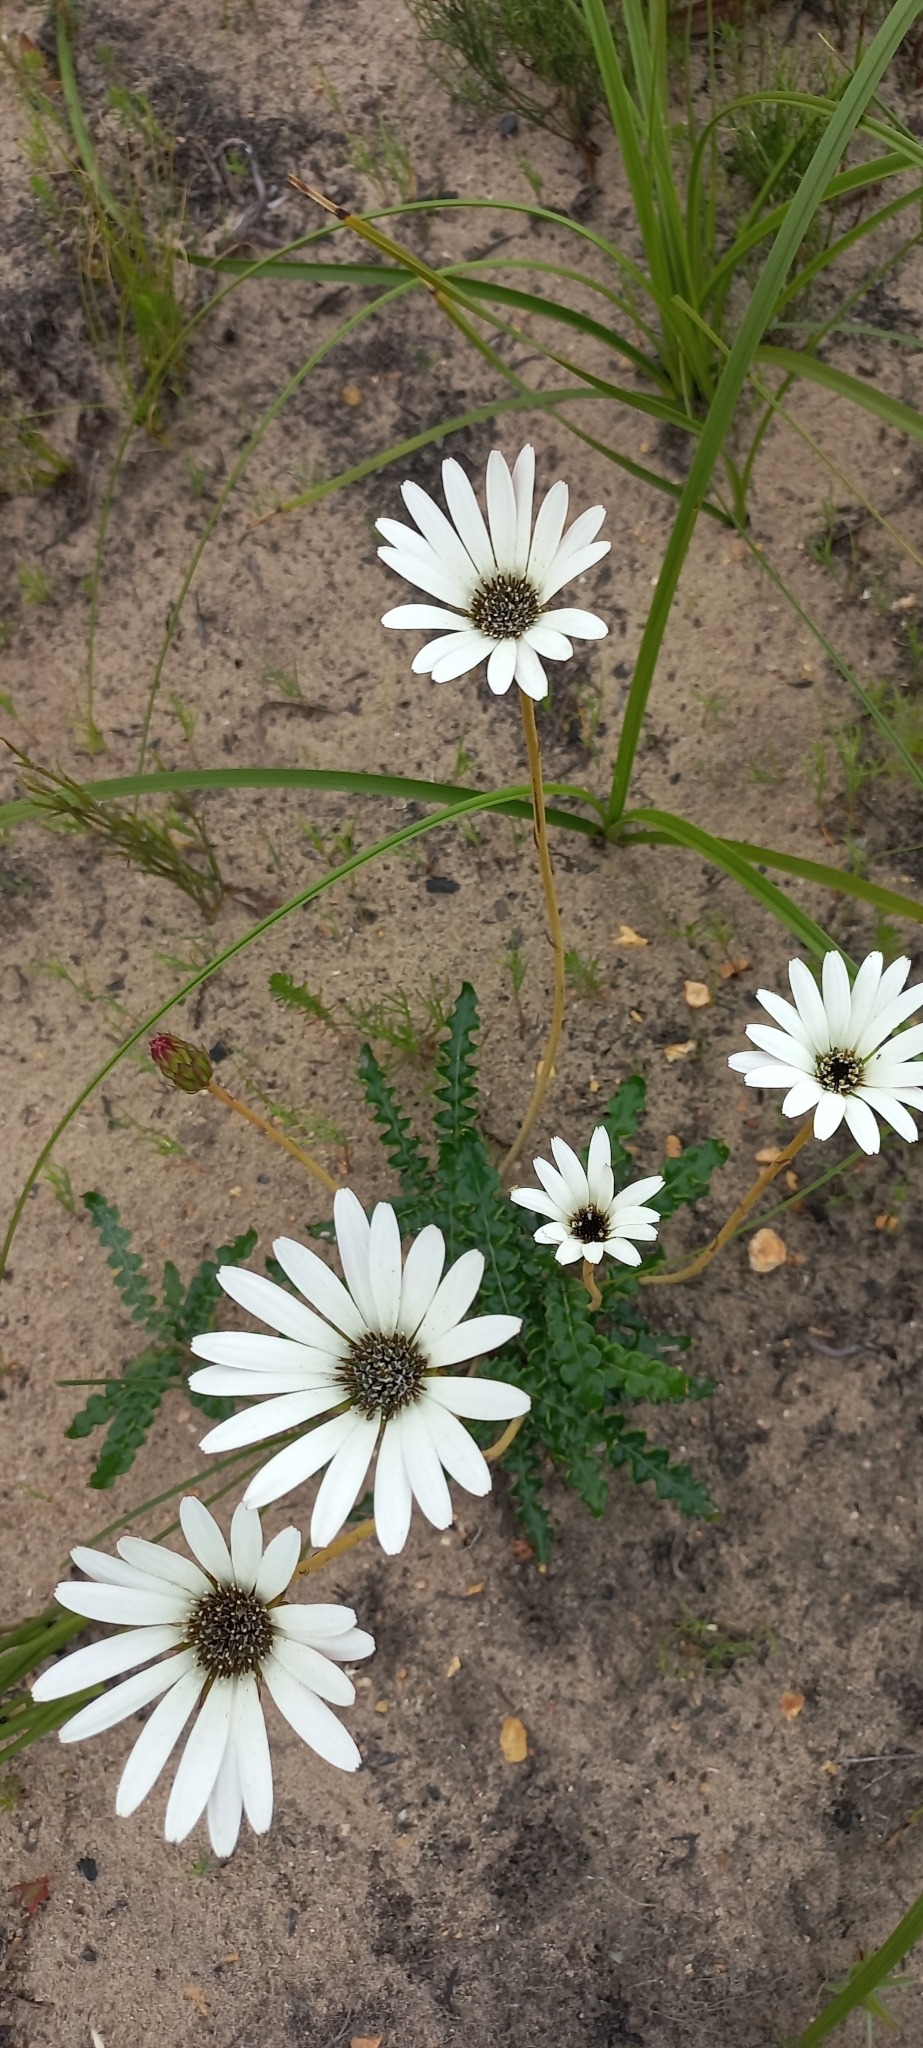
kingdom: Plantae
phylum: Tracheophyta
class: Magnoliopsida
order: Asterales
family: Asteraceae
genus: Gerbera
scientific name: Gerbera linnaei
